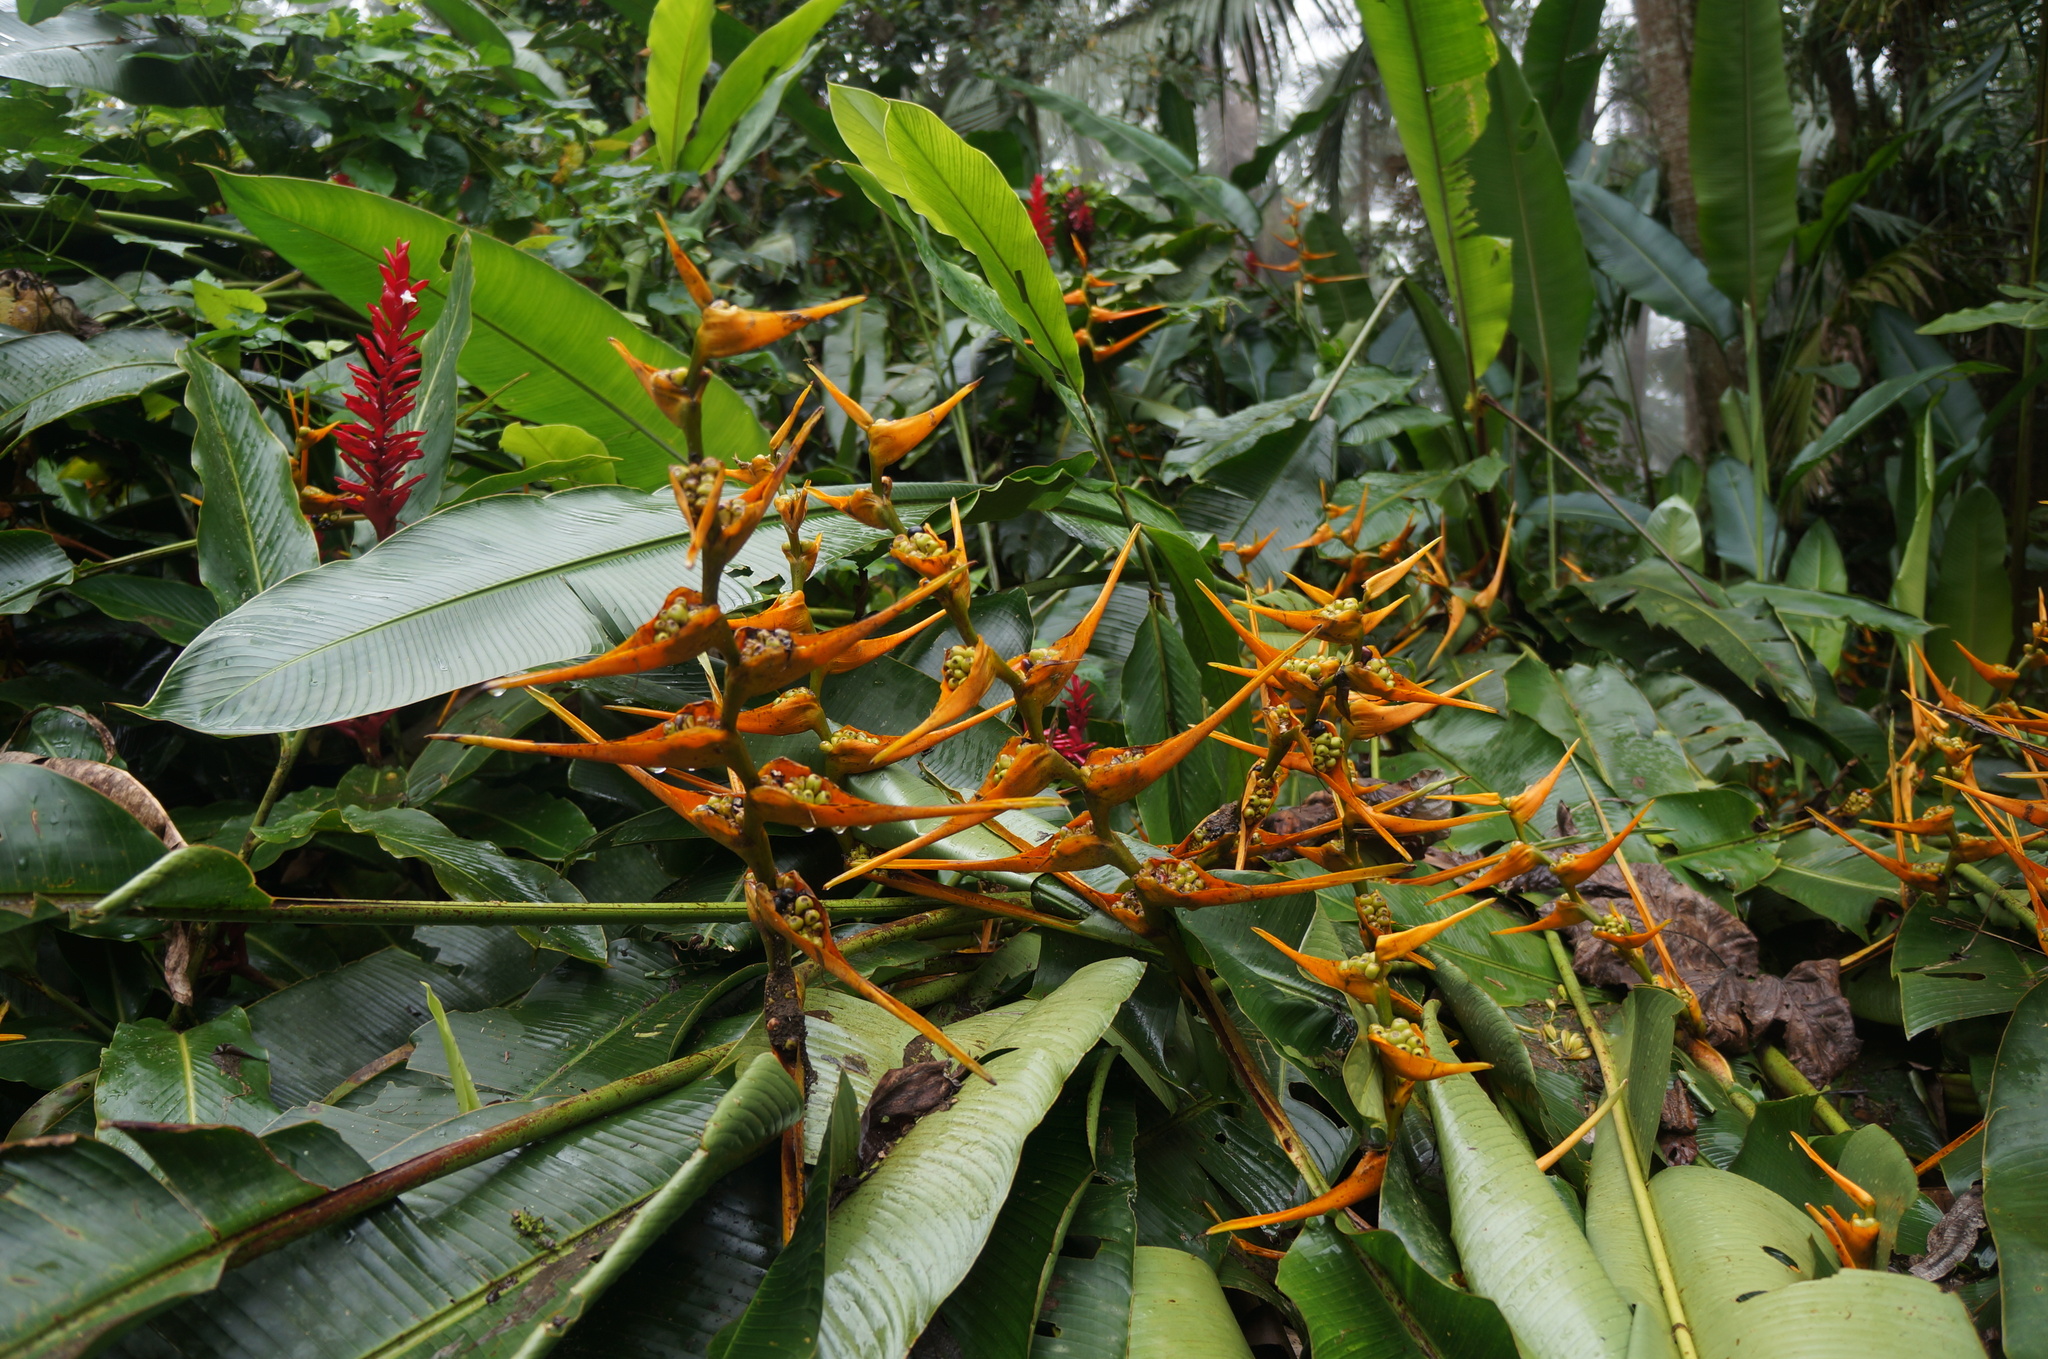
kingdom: Plantae
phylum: Tracheophyta
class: Liliopsida
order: Zingiberales
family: Heliconiaceae
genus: Heliconia
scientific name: Heliconia latispatha
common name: Expanded lobsterclaw
